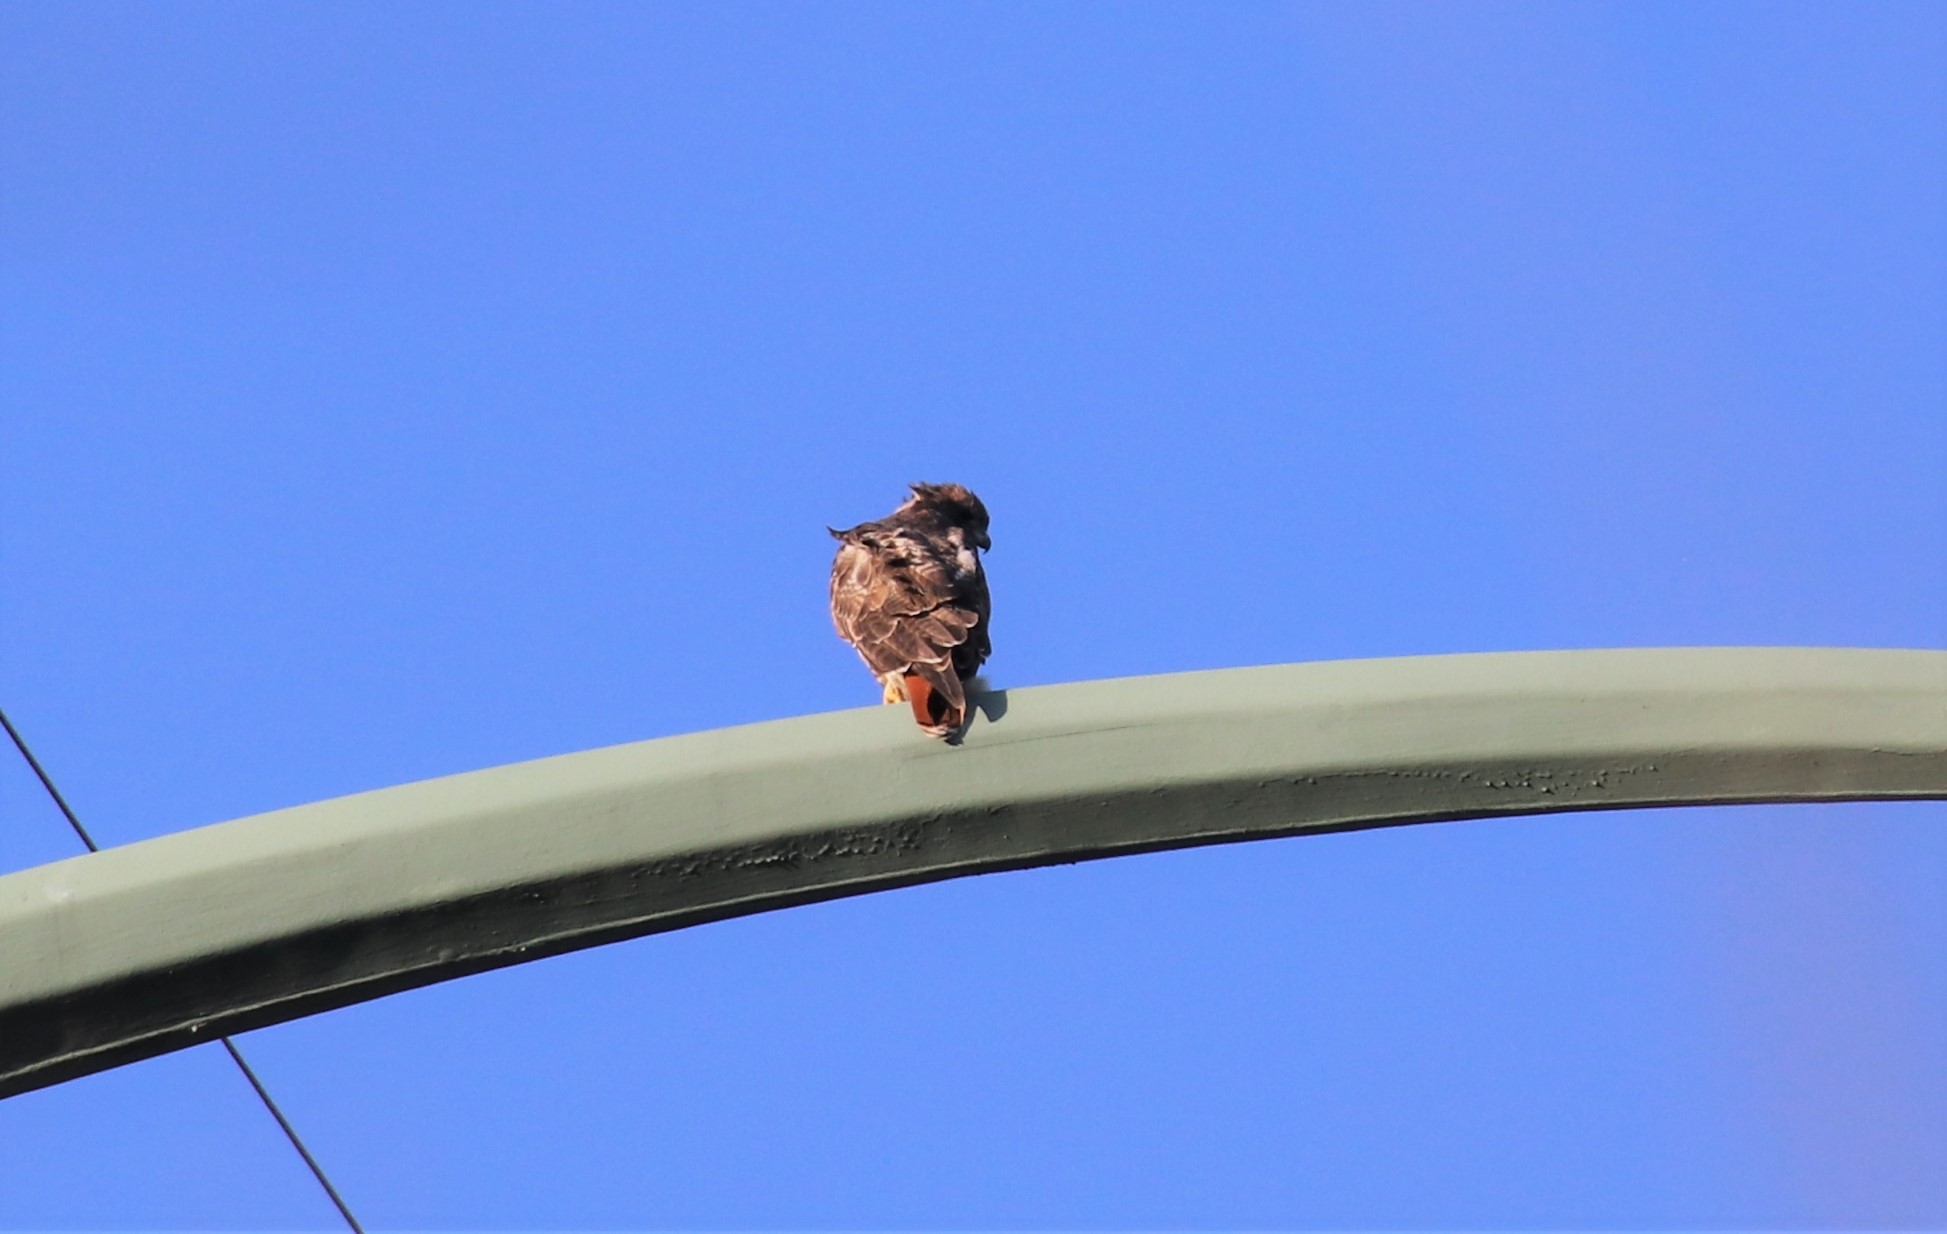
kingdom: Animalia
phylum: Chordata
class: Aves
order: Accipitriformes
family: Accipitridae
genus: Buteo
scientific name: Buteo jamaicensis
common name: Red-tailed hawk
